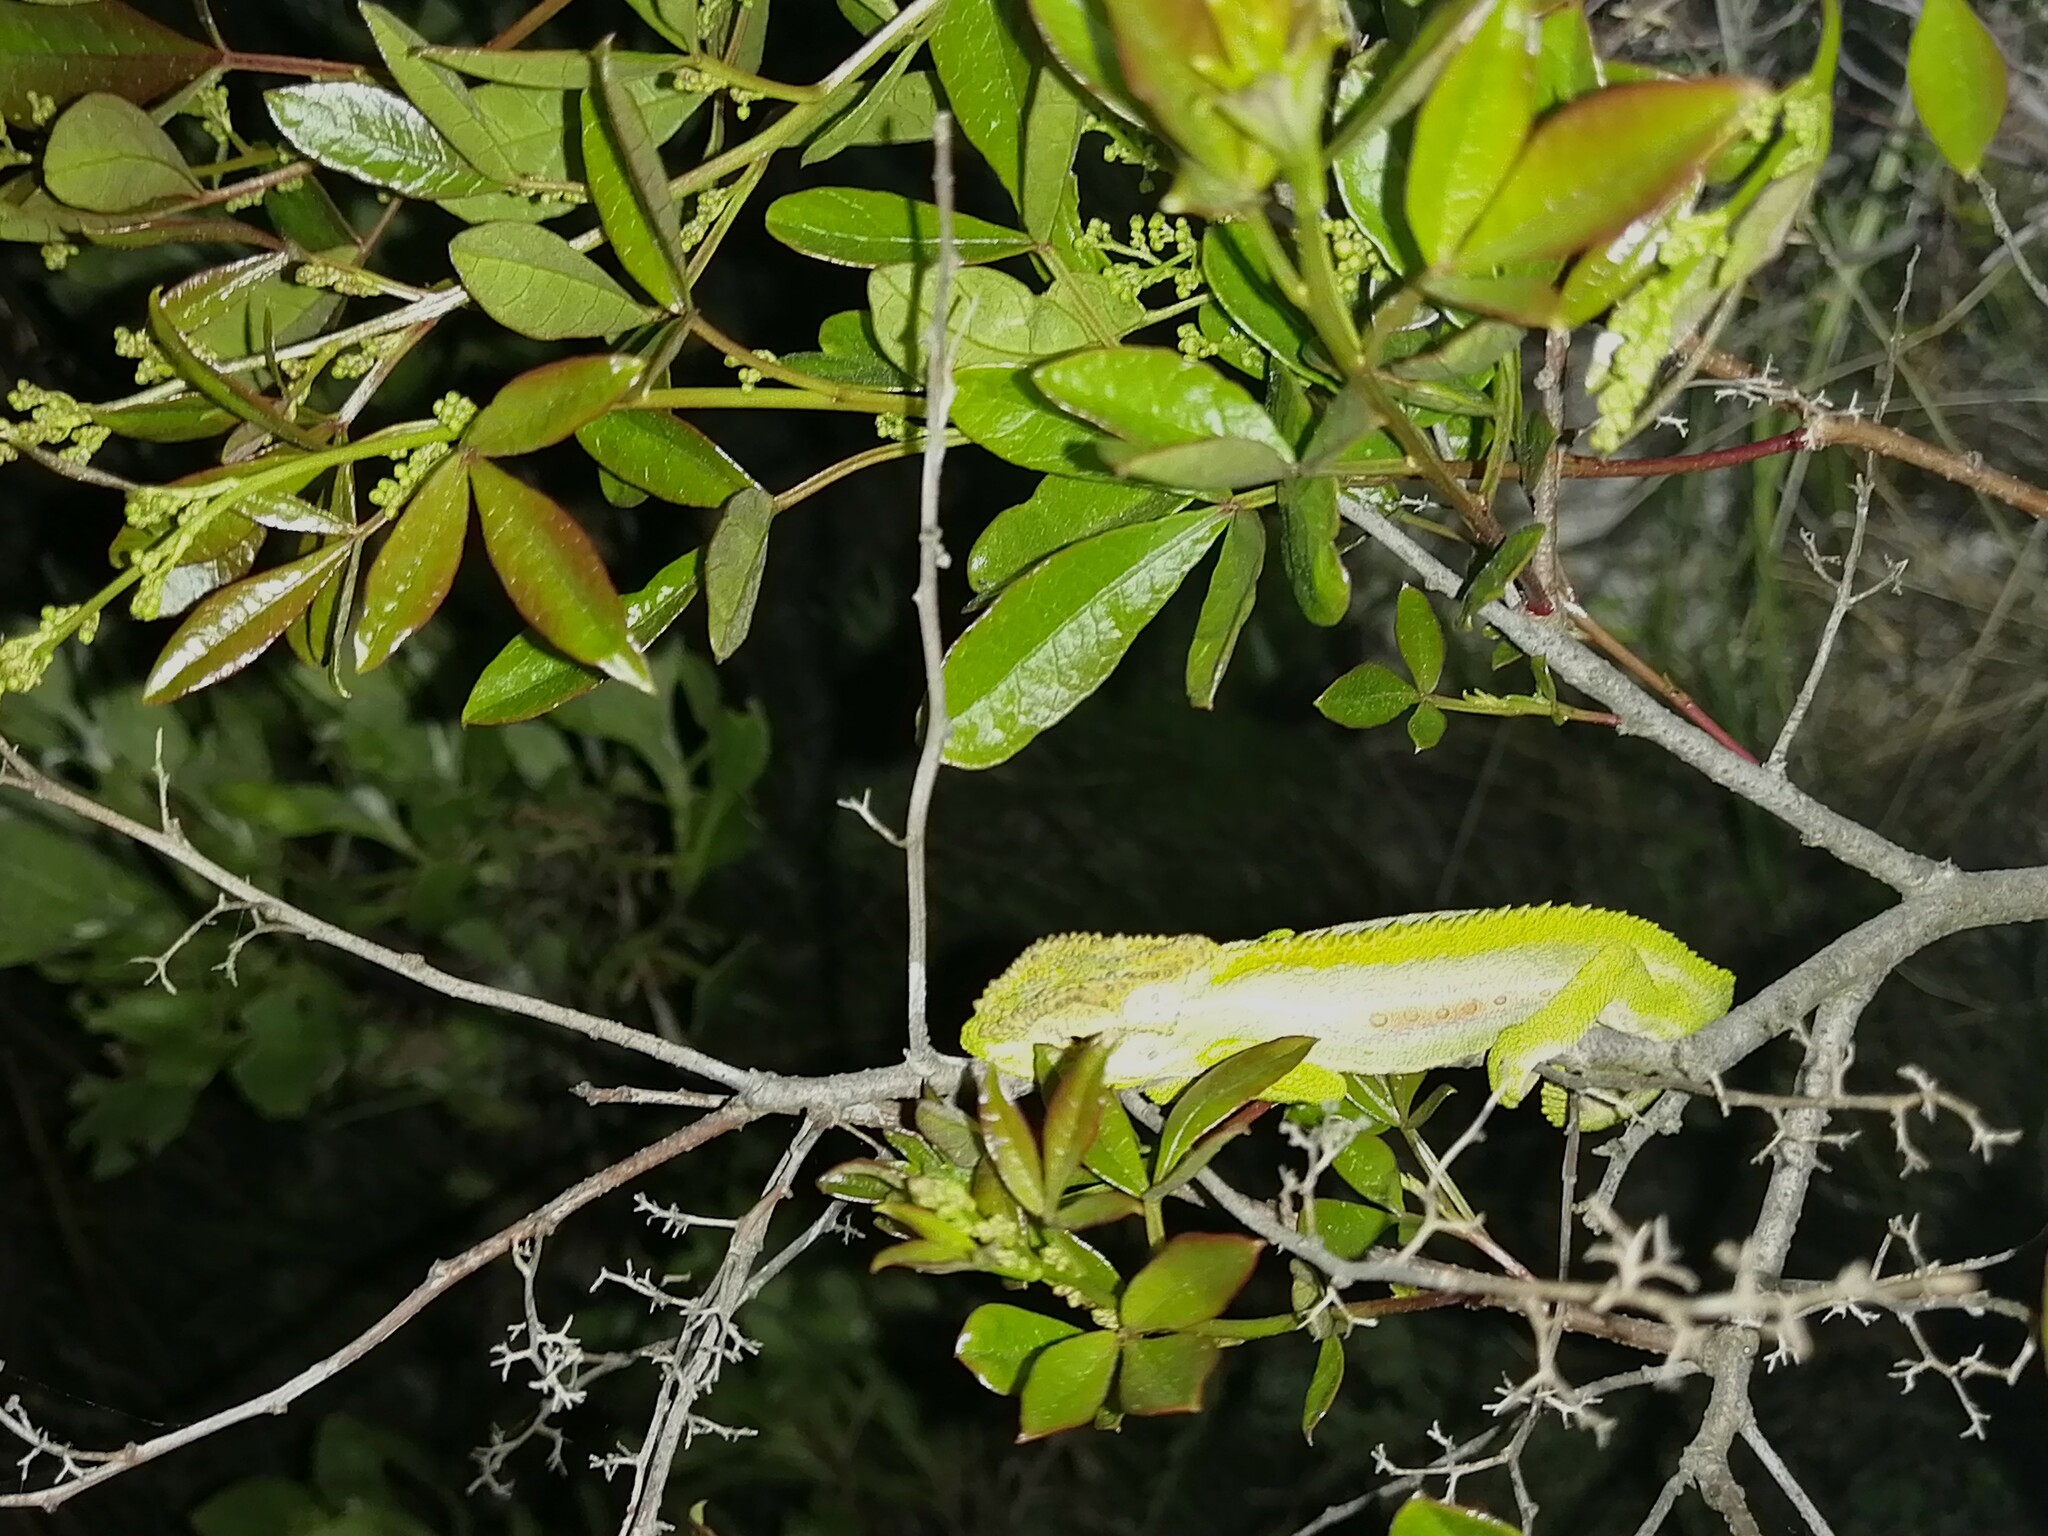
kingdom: Animalia
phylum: Chordata
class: Squamata
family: Chamaeleonidae
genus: Bradypodion
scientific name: Bradypodion pumilum
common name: Cape dwarf chameleon
